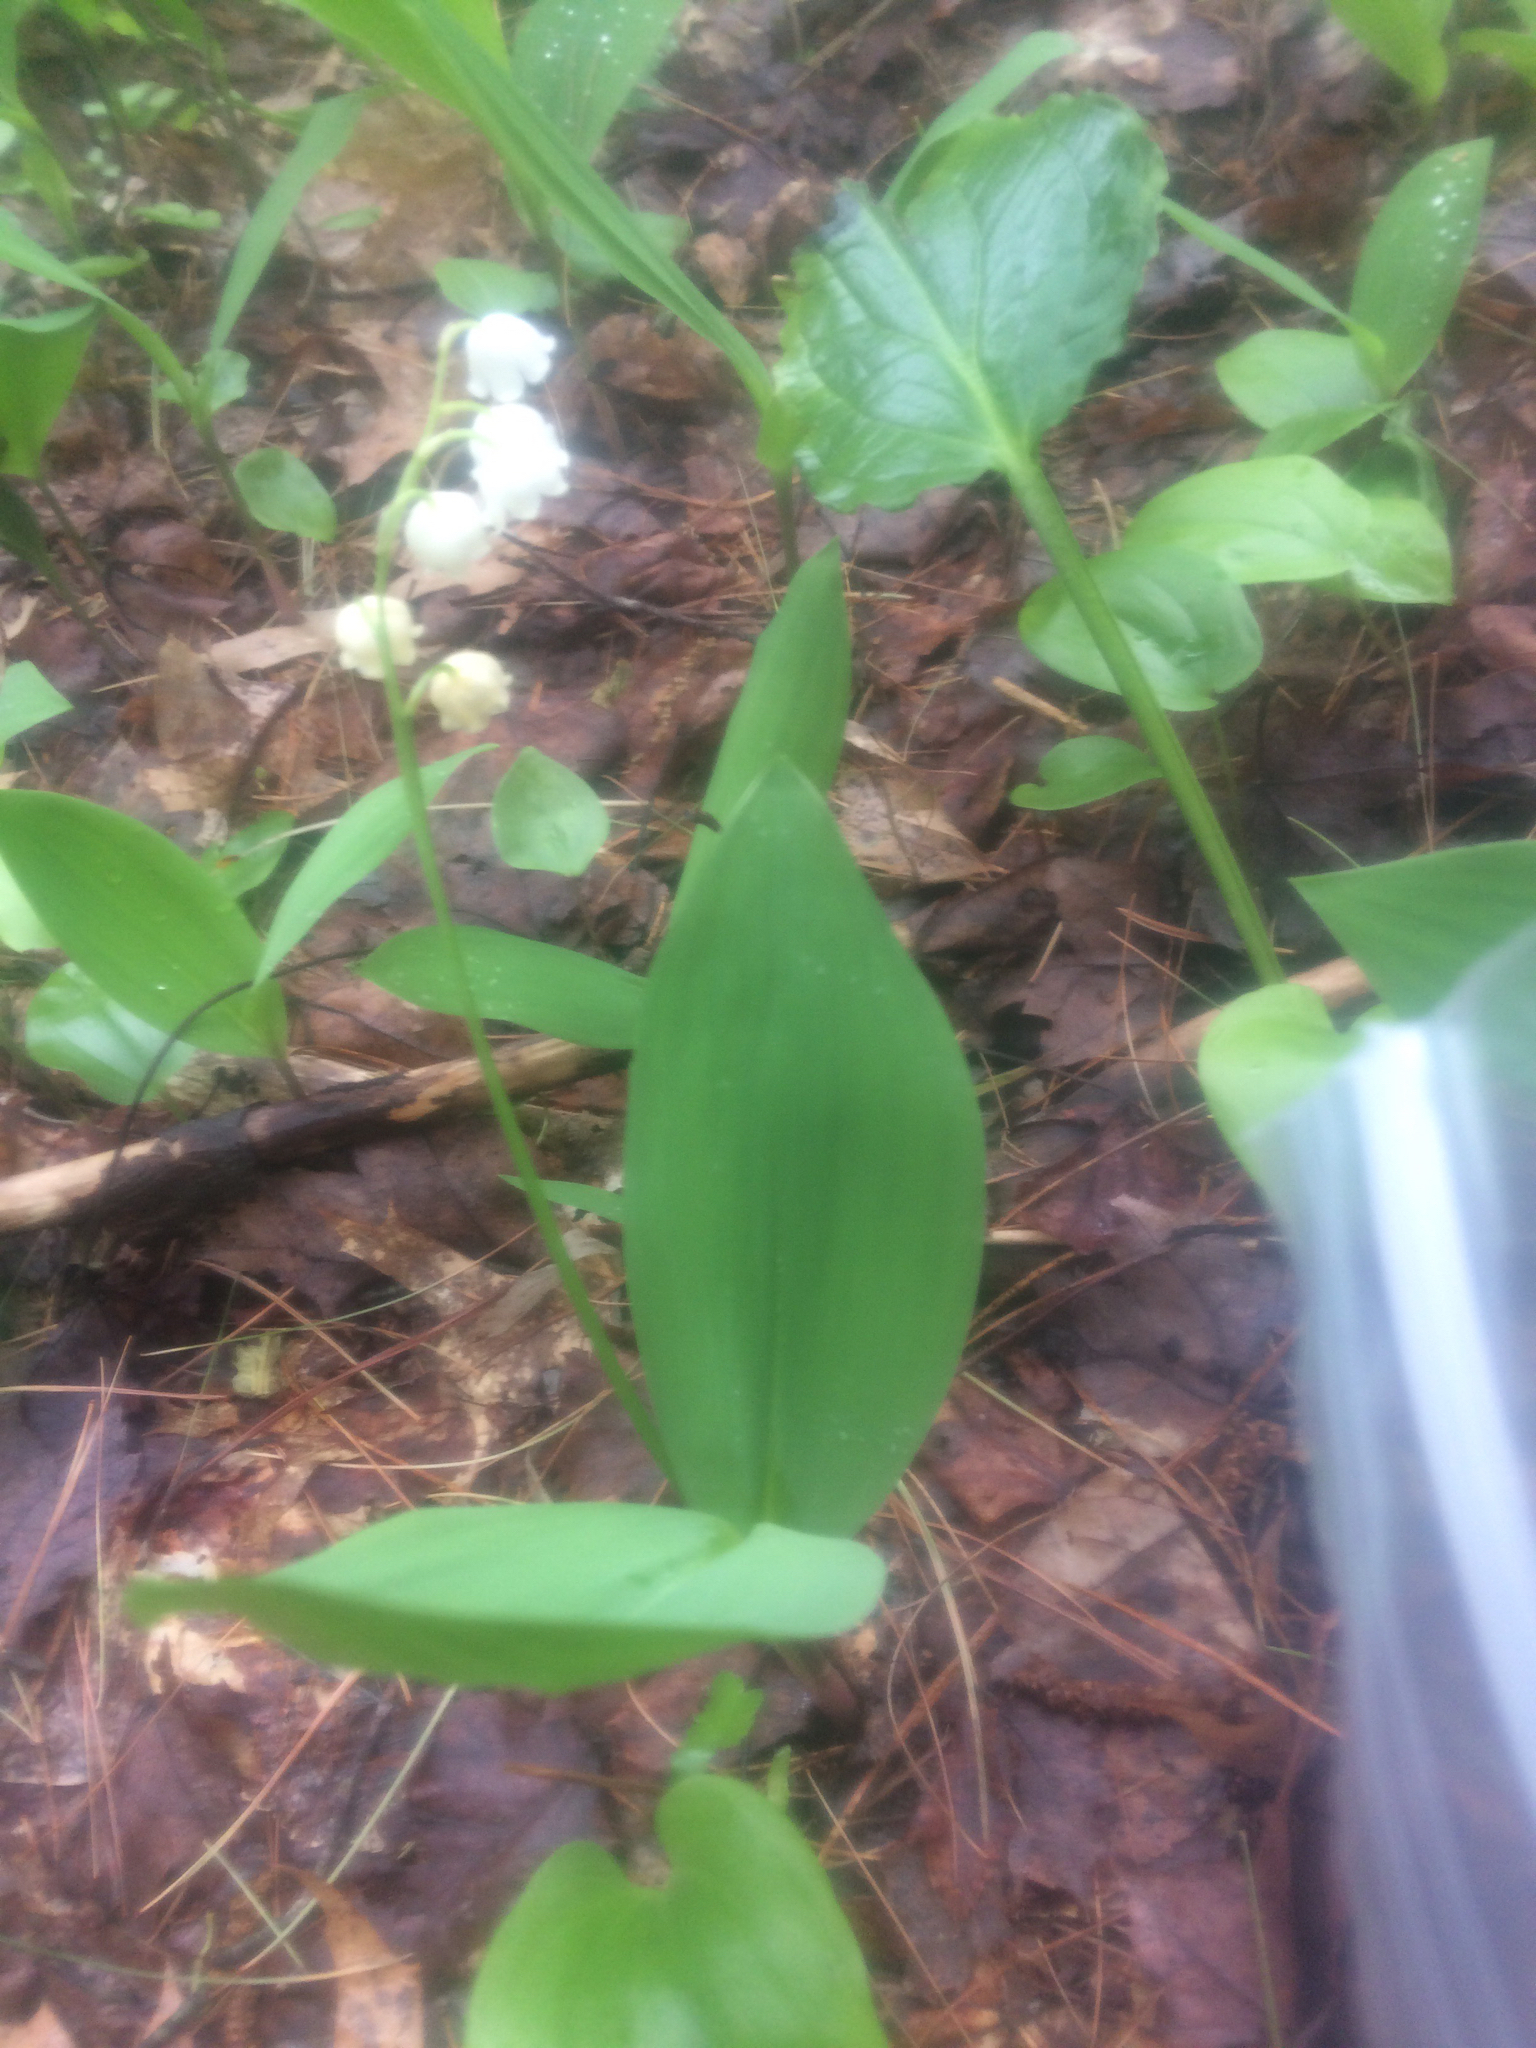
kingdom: Plantae
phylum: Tracheophyta
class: Liliopsida
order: Asparagales
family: Asparagaceae
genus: Convallaria
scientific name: Convallaria majalis
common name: Lily-of-the-valley
